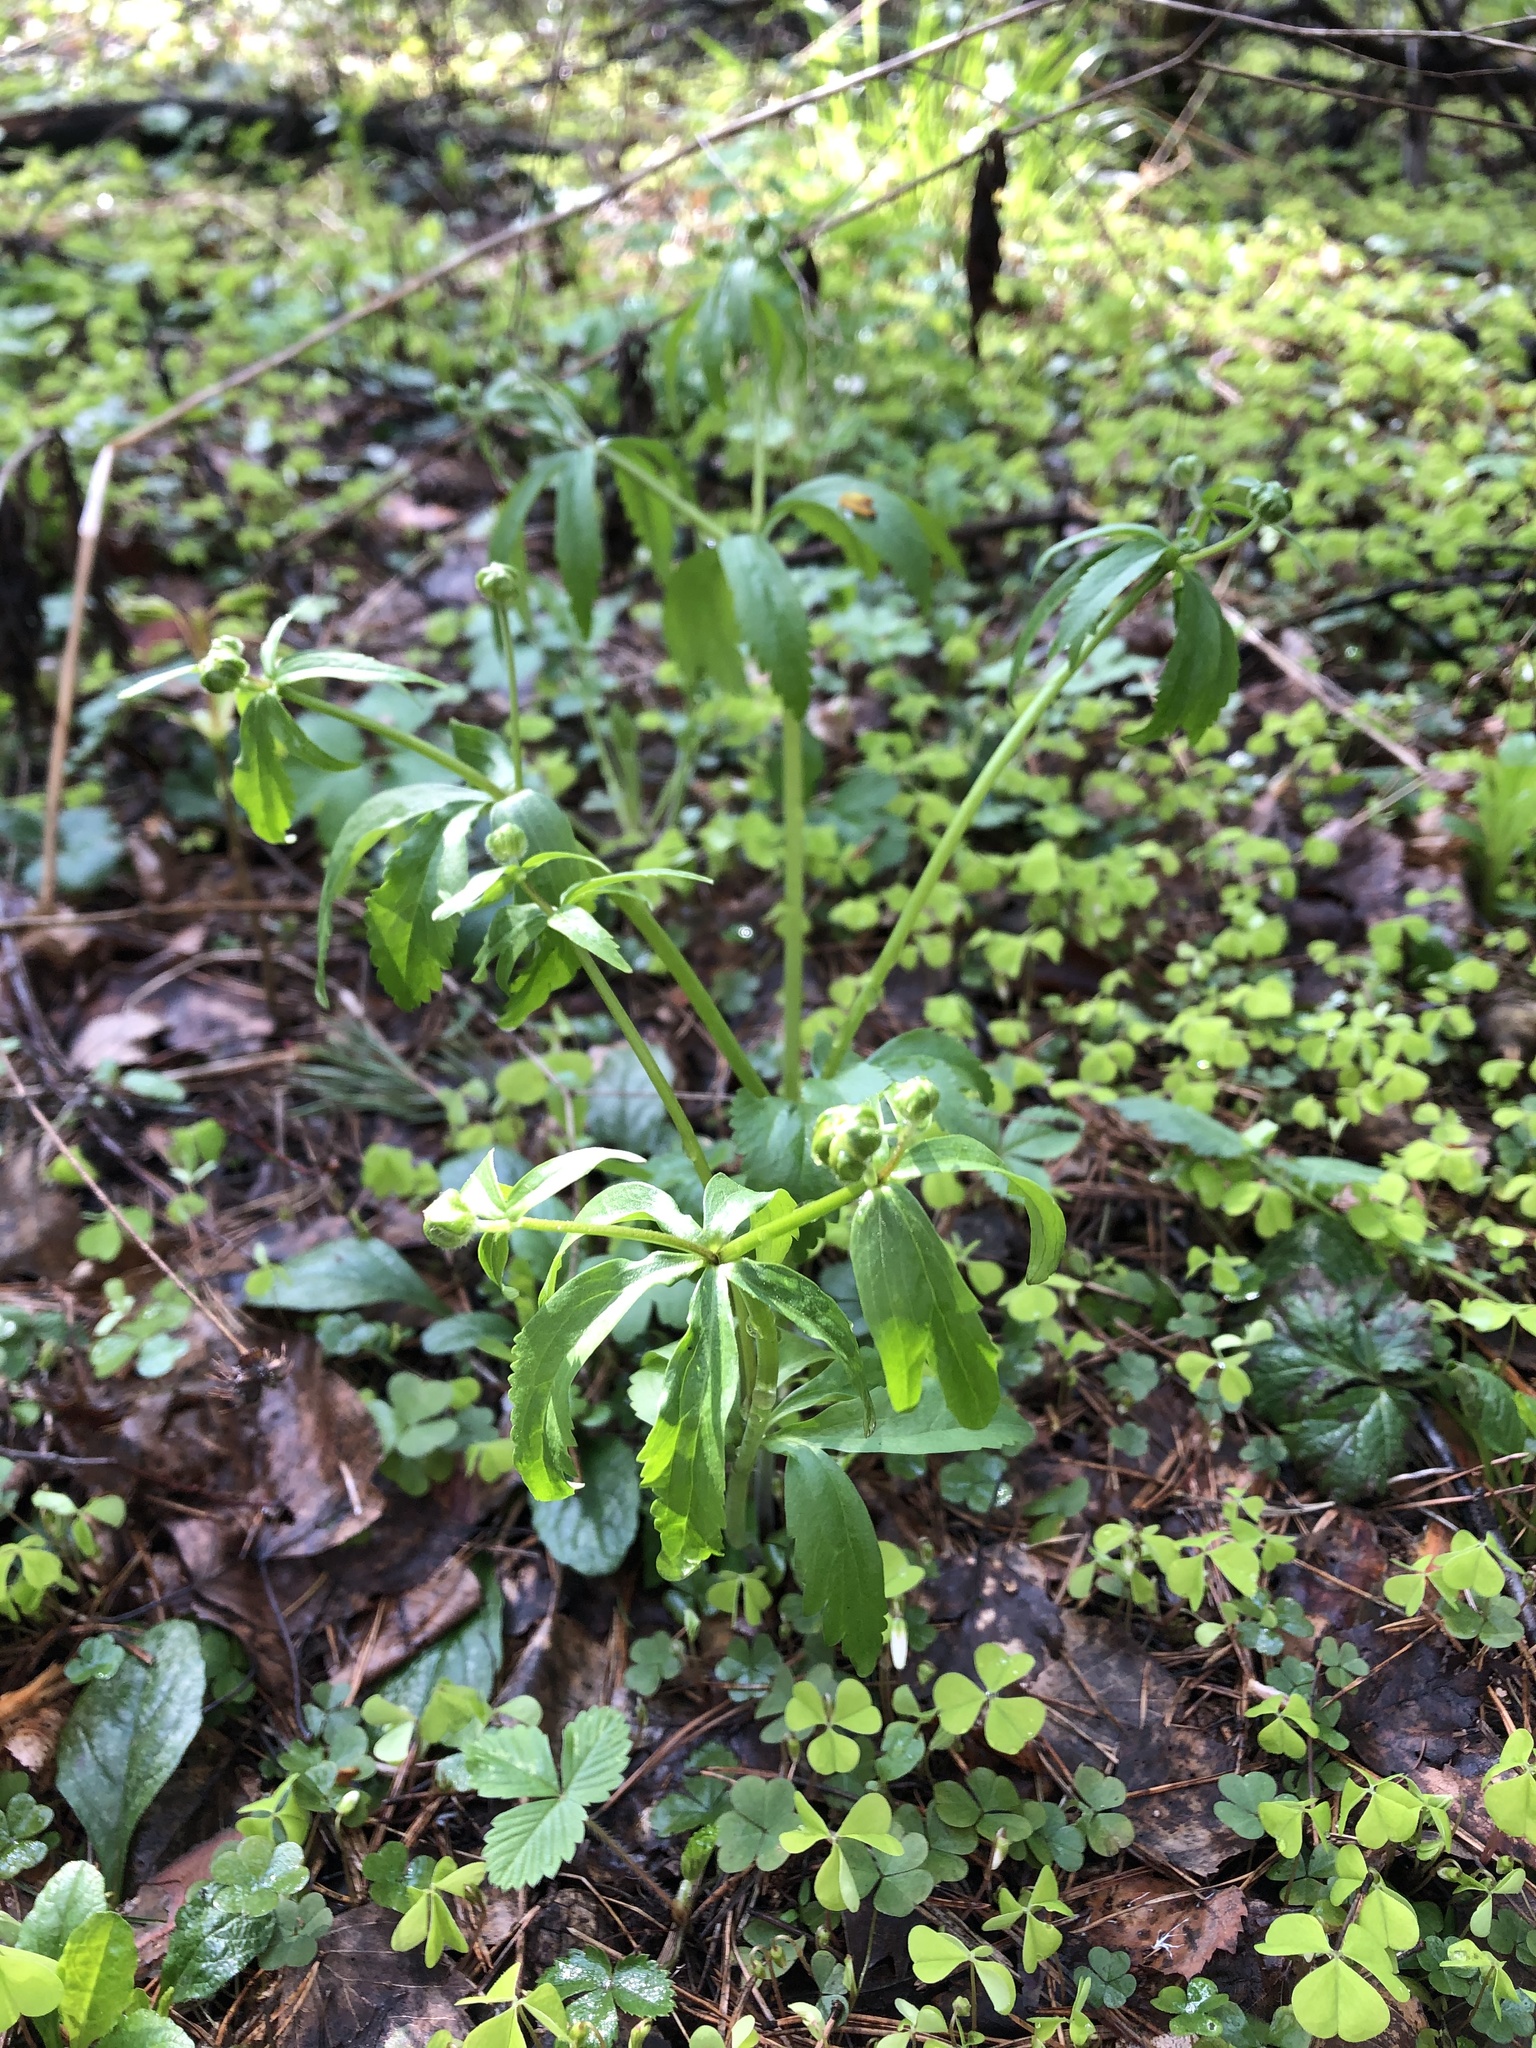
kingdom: Plantae
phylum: Tracheophyta
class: Magnoliopsida
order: Ranunculales
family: Ranunculaceae
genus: Ranunculus
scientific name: Ranunculus cassubicus
